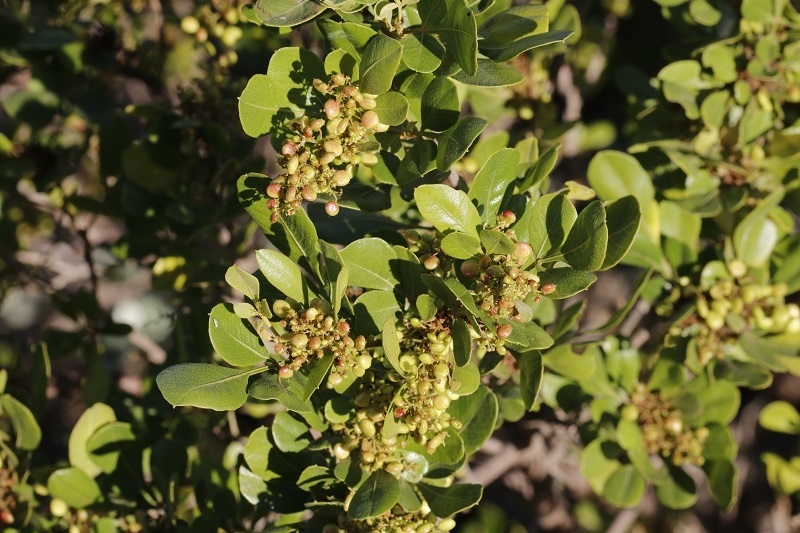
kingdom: Plantae
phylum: Tracheophyta
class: Magnoliopsida
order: Sapindales
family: Anacardiaceae
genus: Searsia
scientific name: Searsia pallens
